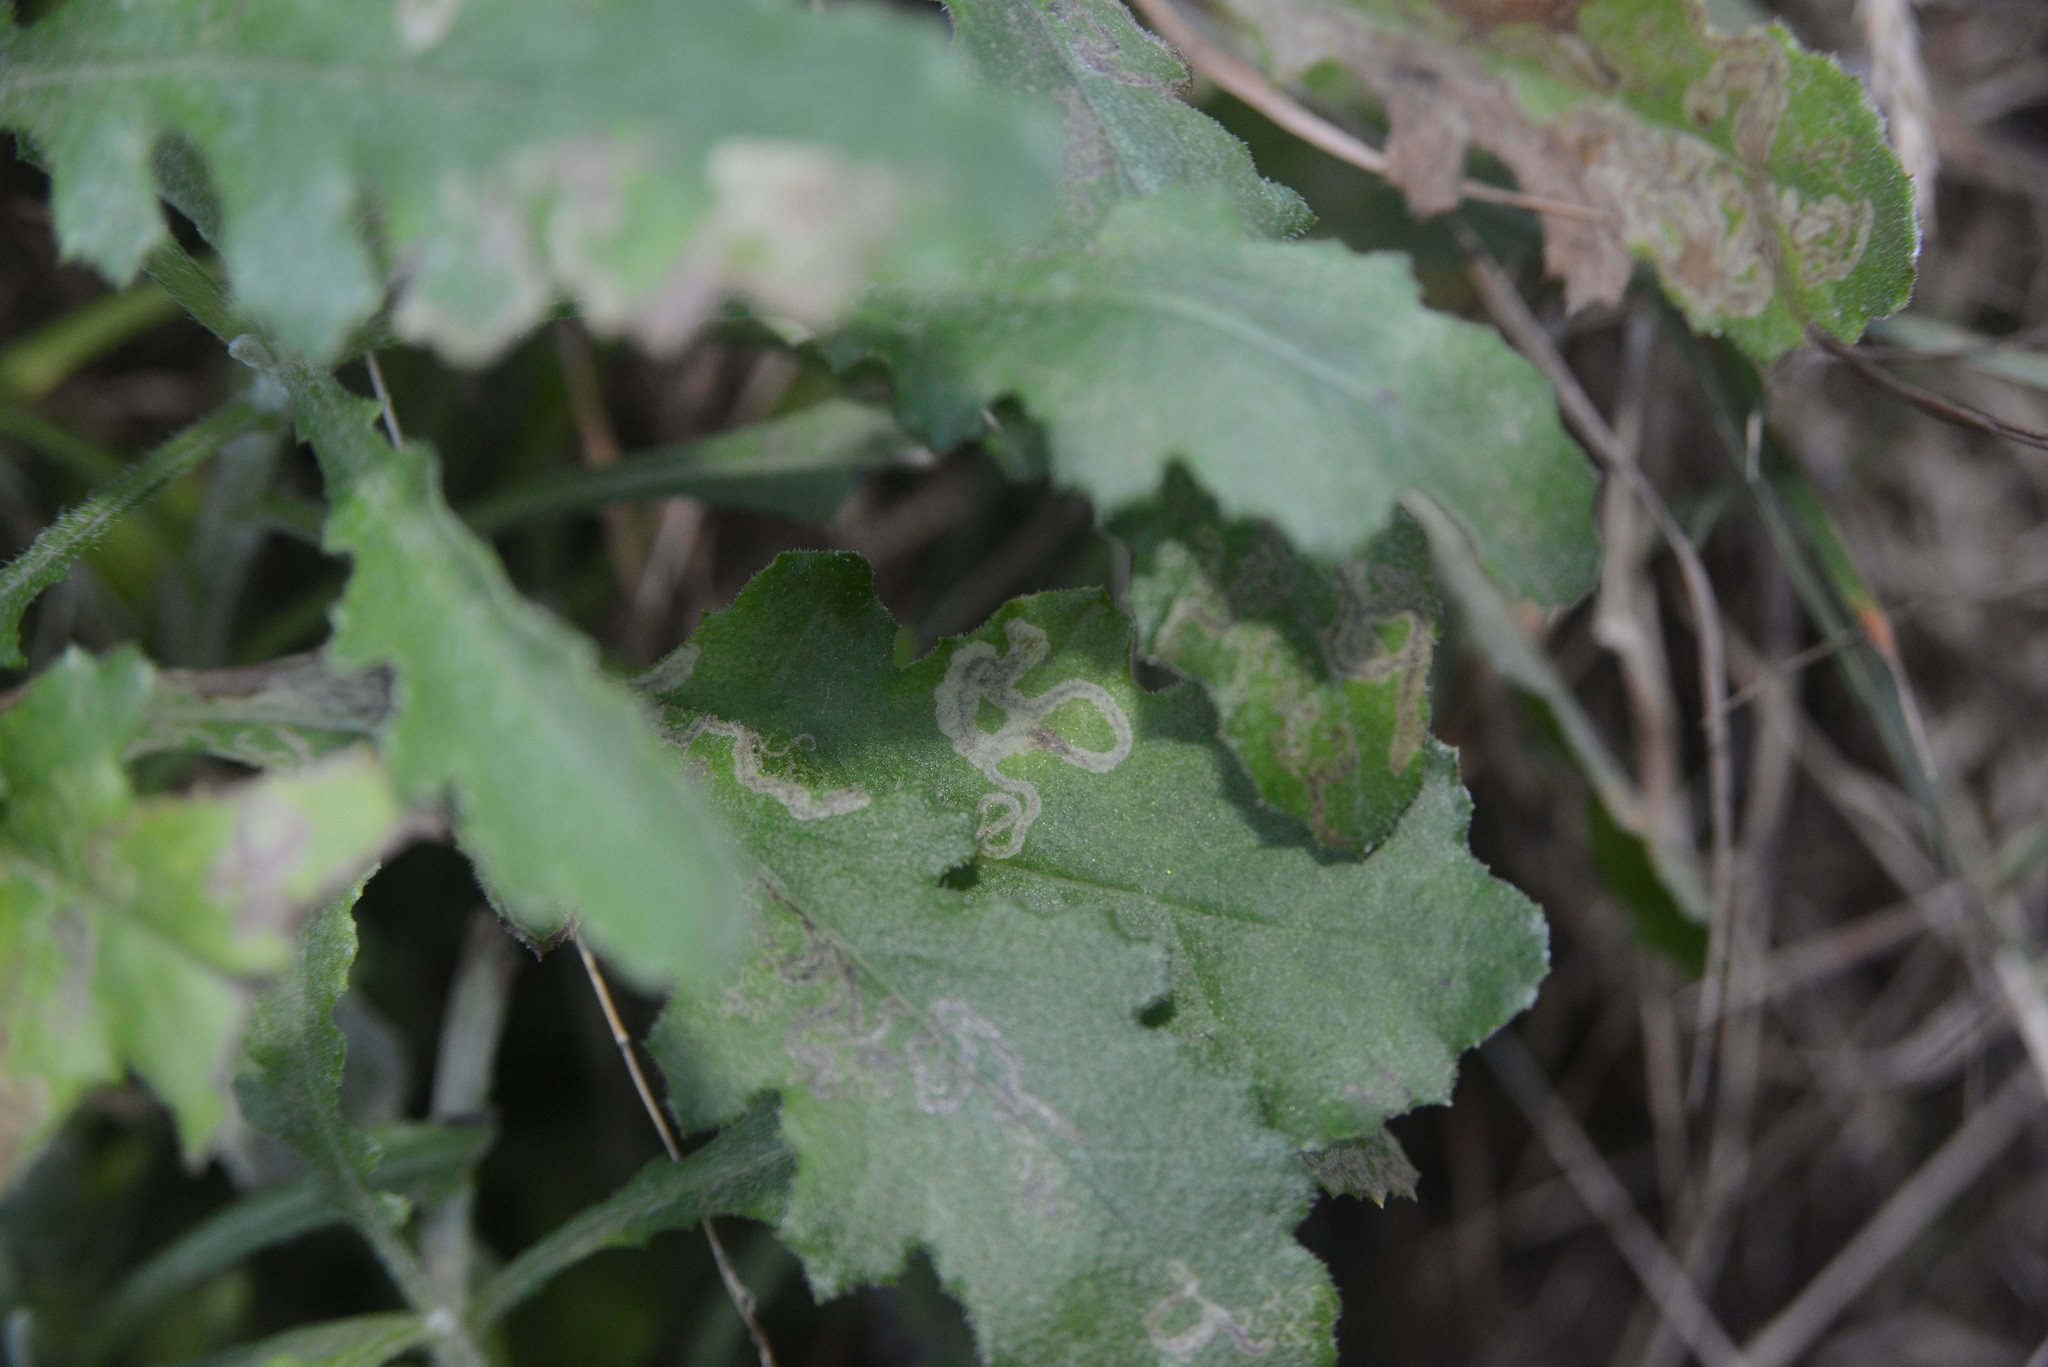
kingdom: Animalia
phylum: Arthropoda
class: Insecta
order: Lepidoptera
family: Nepticulidae
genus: Stigmella
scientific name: Stigmella ogygia
